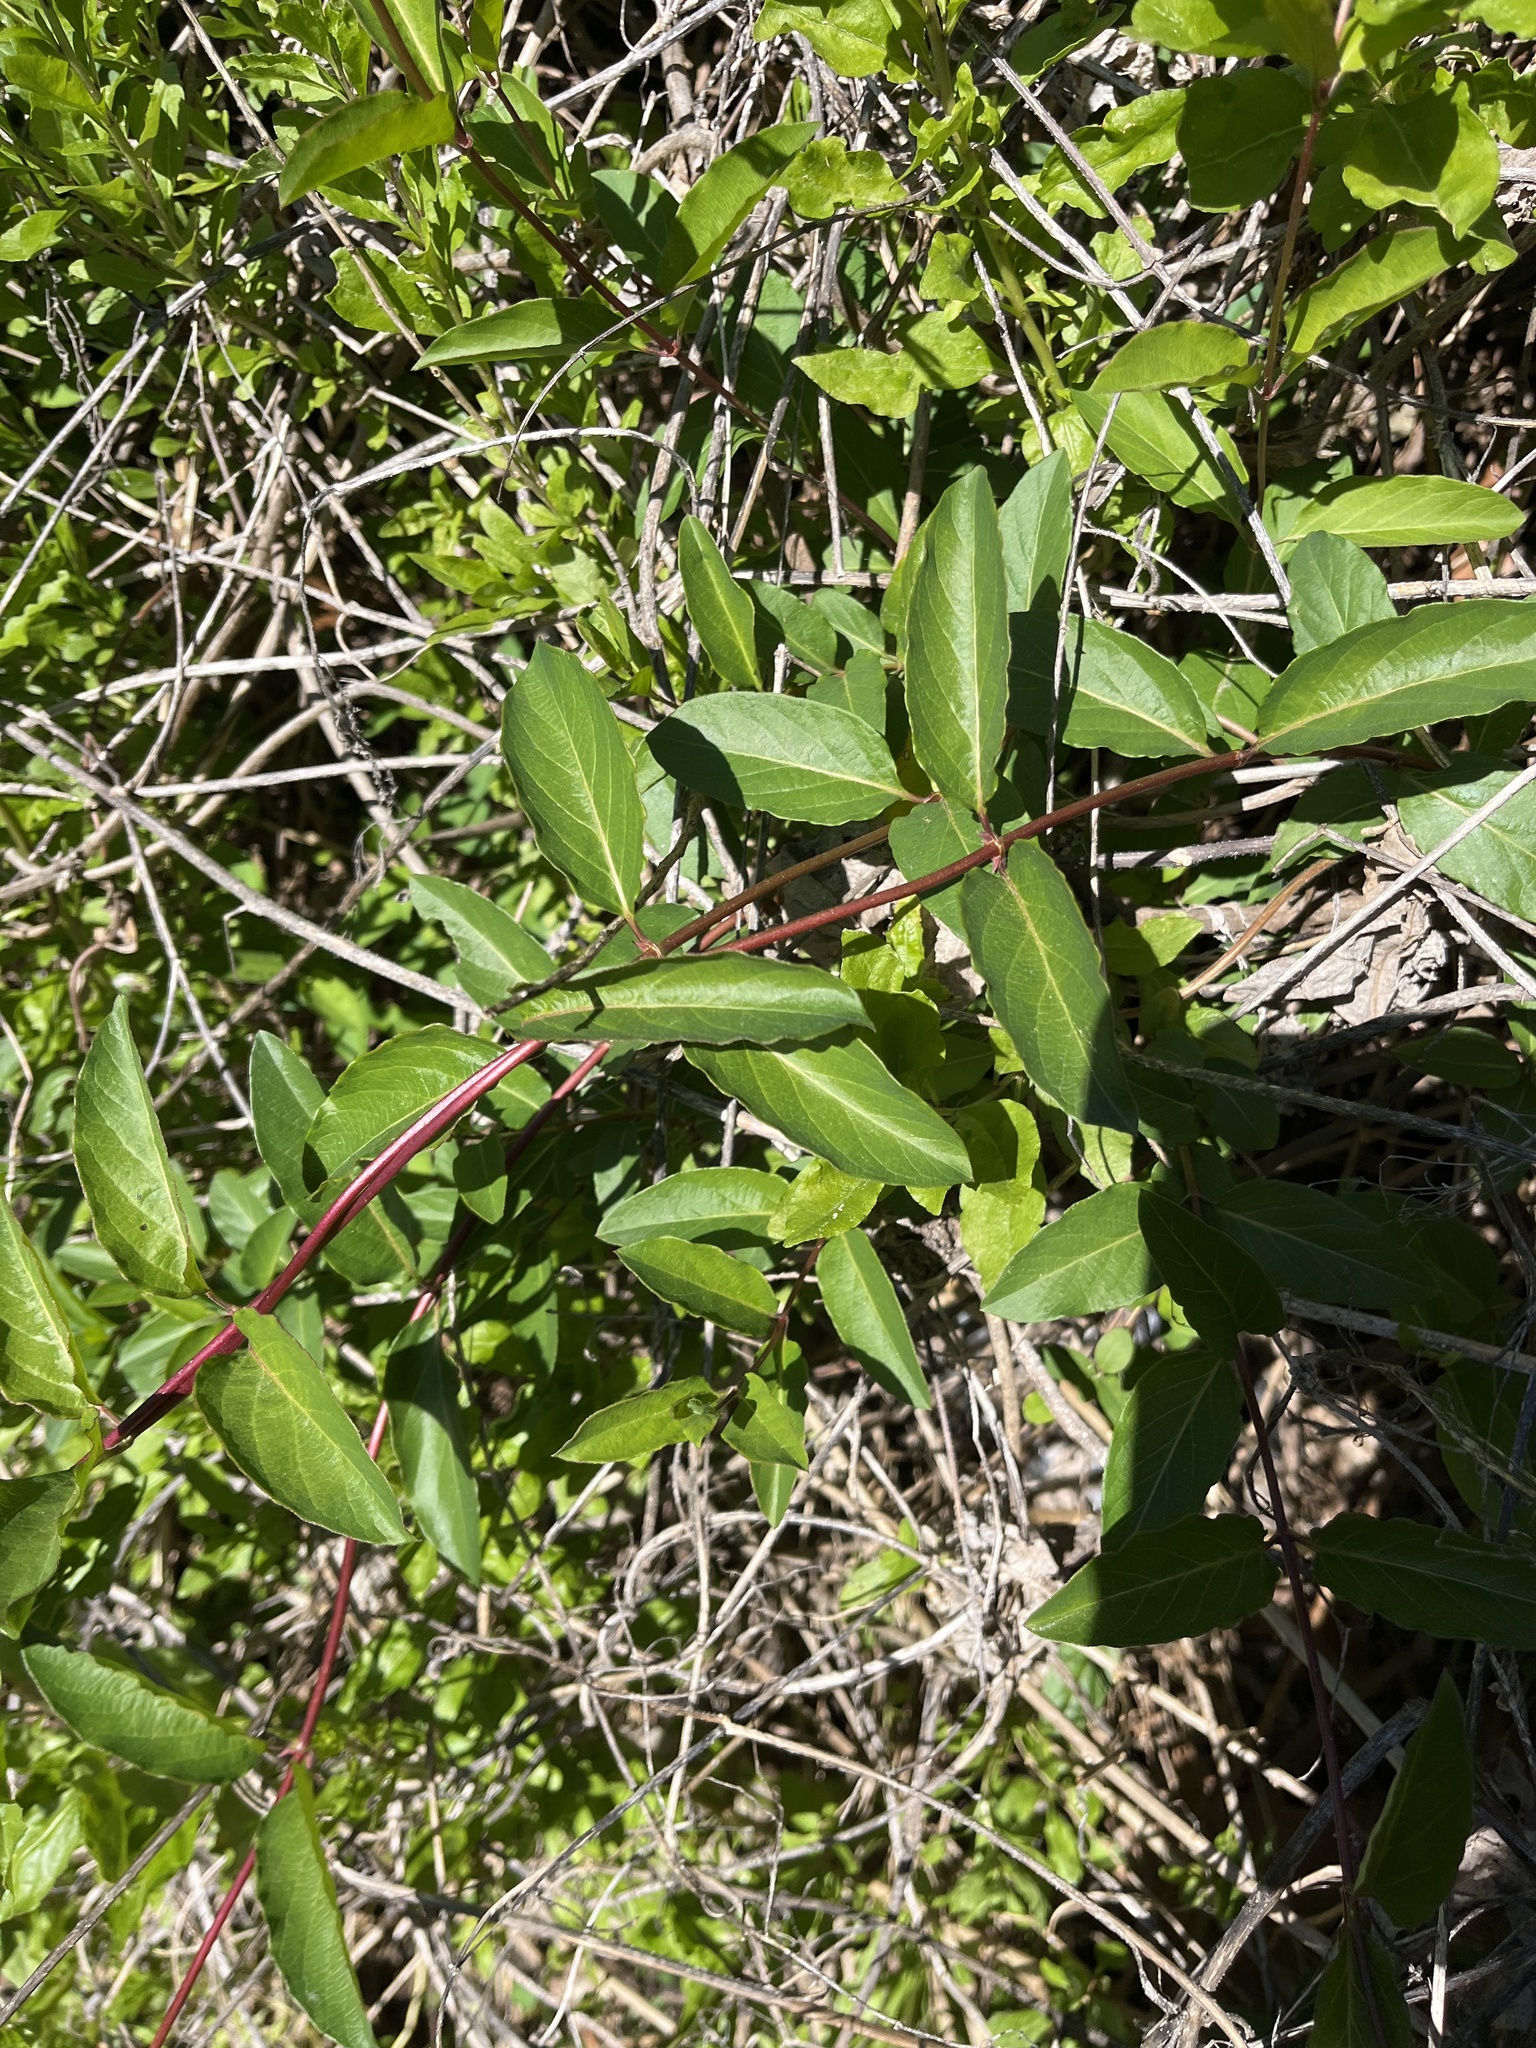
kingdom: Plantae
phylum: Tracheophyta
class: Magnoliopsida
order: Dipsacales
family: Caprifoliaceae
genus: Lonicera
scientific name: Lonicera japonica
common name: Japanese honeysuckle
